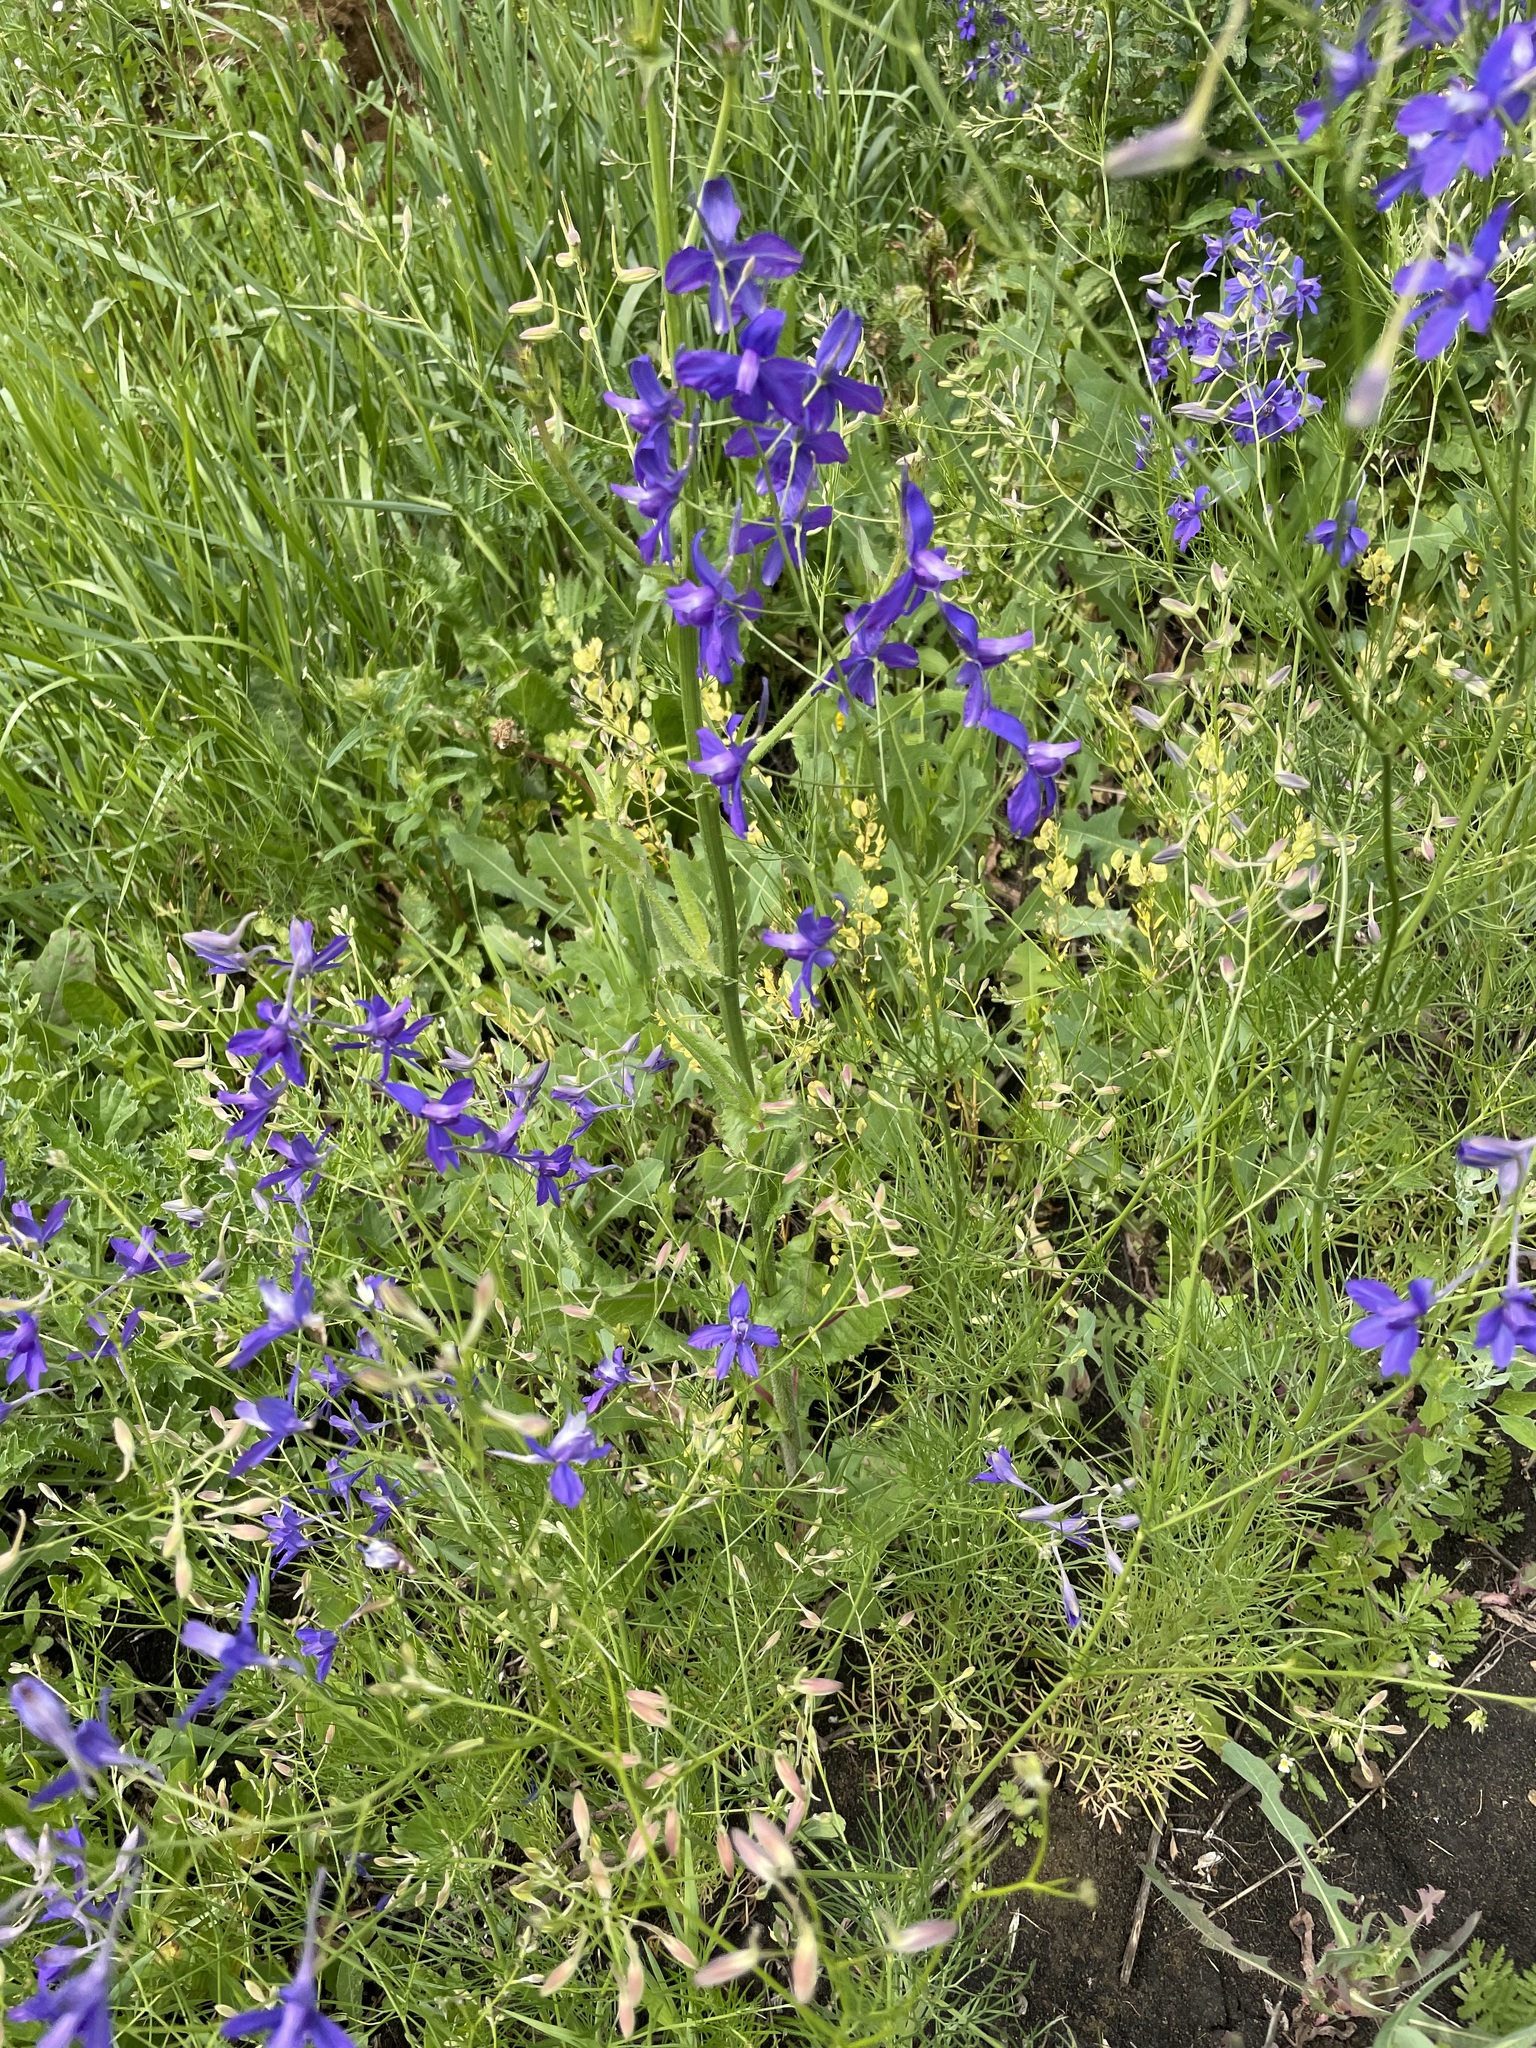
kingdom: Plantae
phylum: Tracheophyta
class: Magnoliopsida
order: Ranunculales
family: Ranunculaceae
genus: Delphinium
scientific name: Delphinium consolida
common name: Branching larkspur
